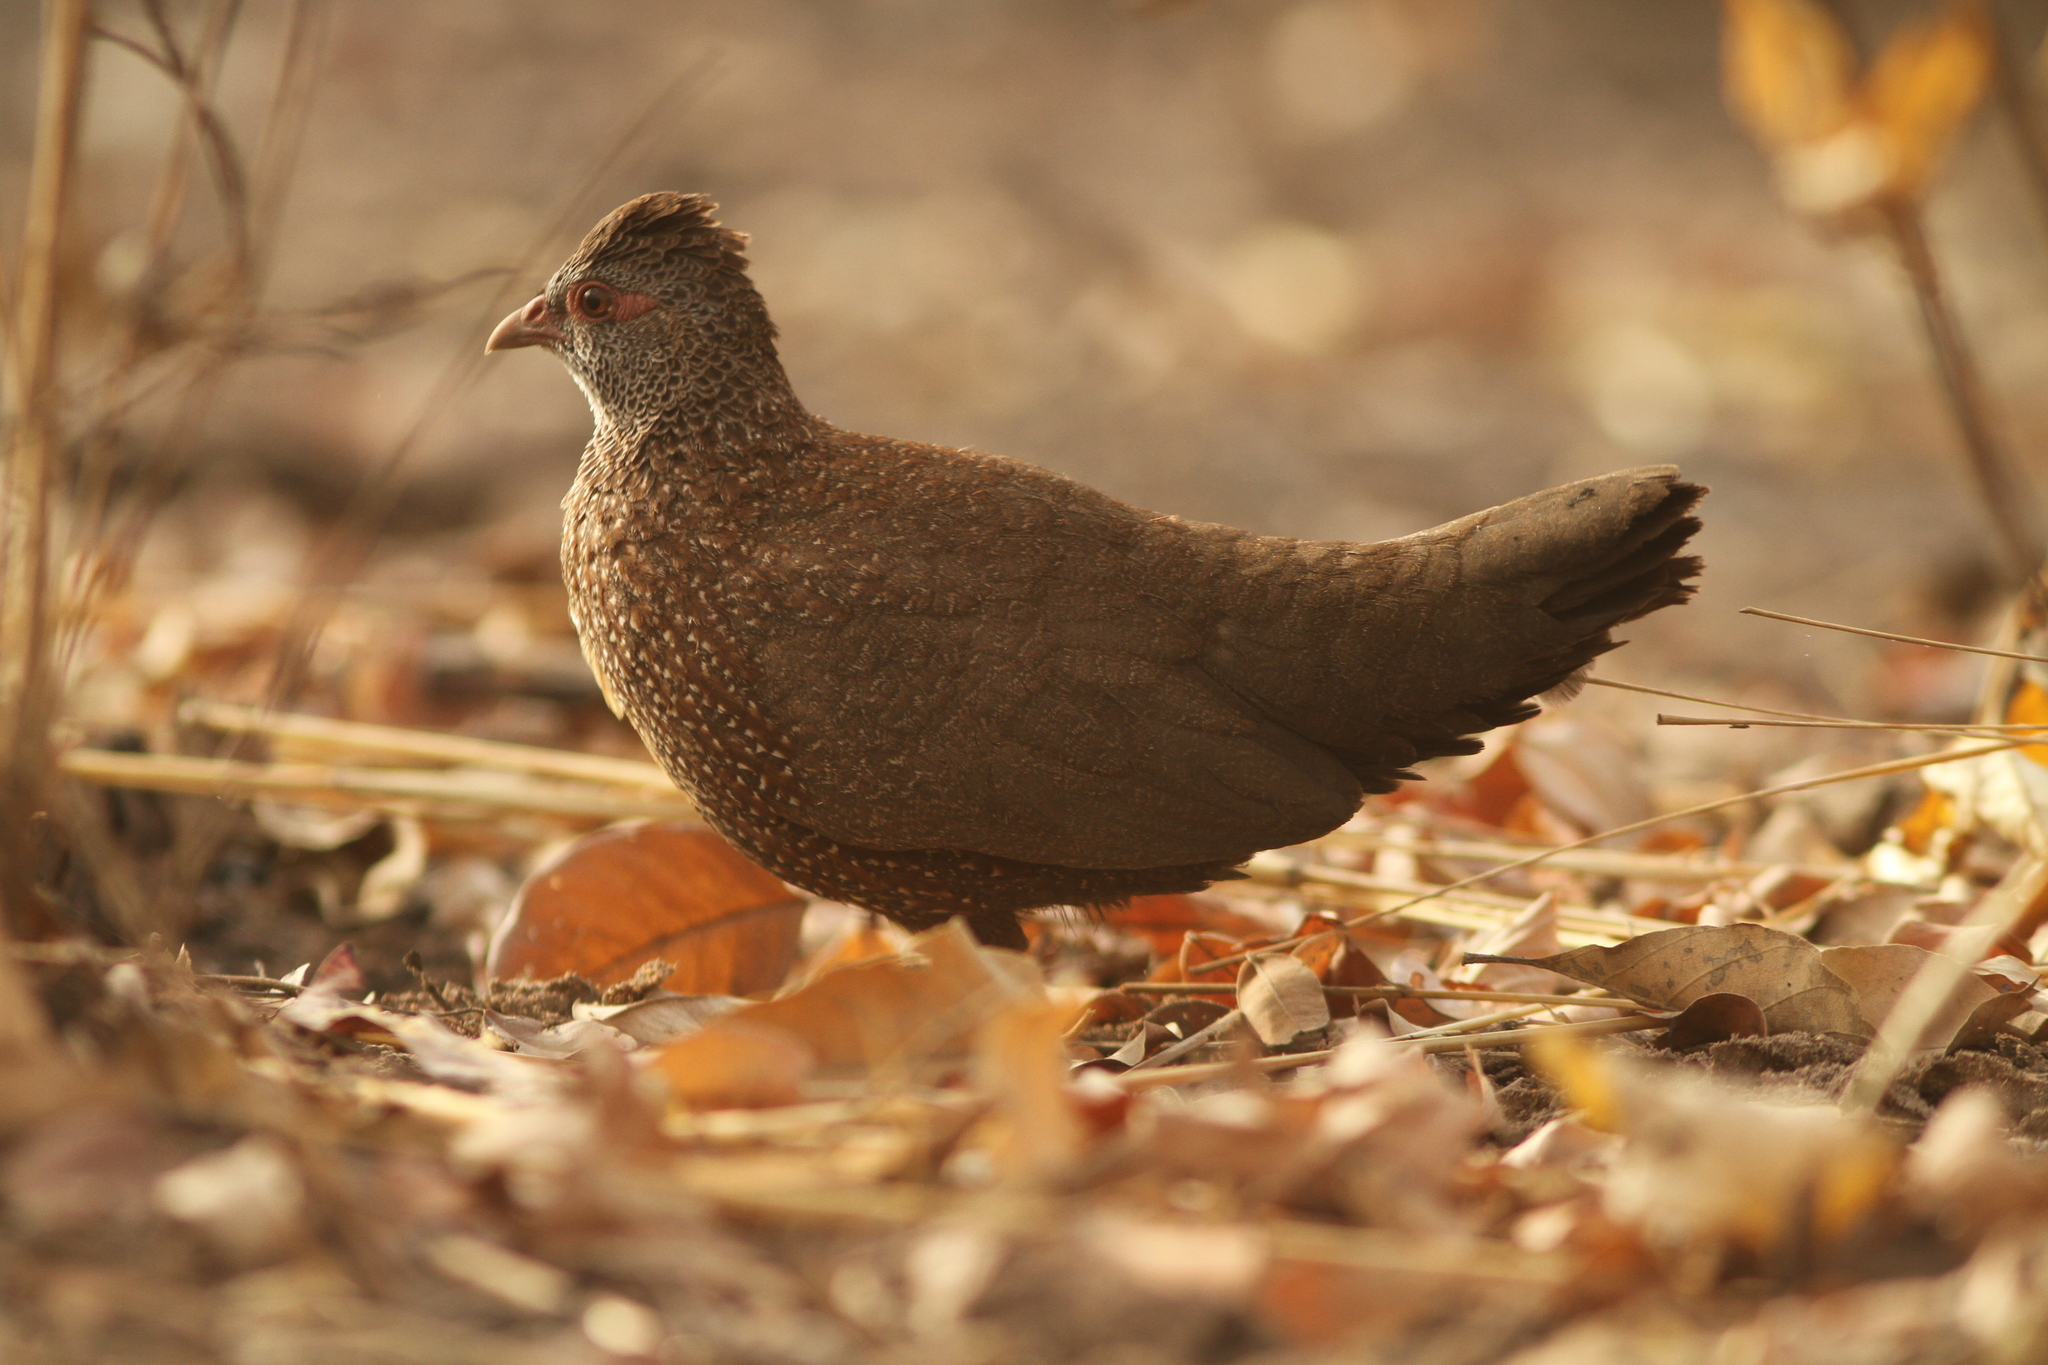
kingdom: Animalia
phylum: Chordata
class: Aves
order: Galliformes
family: Odontophoridae
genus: Ptilopachus
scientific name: Ptilopachus petrosus
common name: Stone partridge
